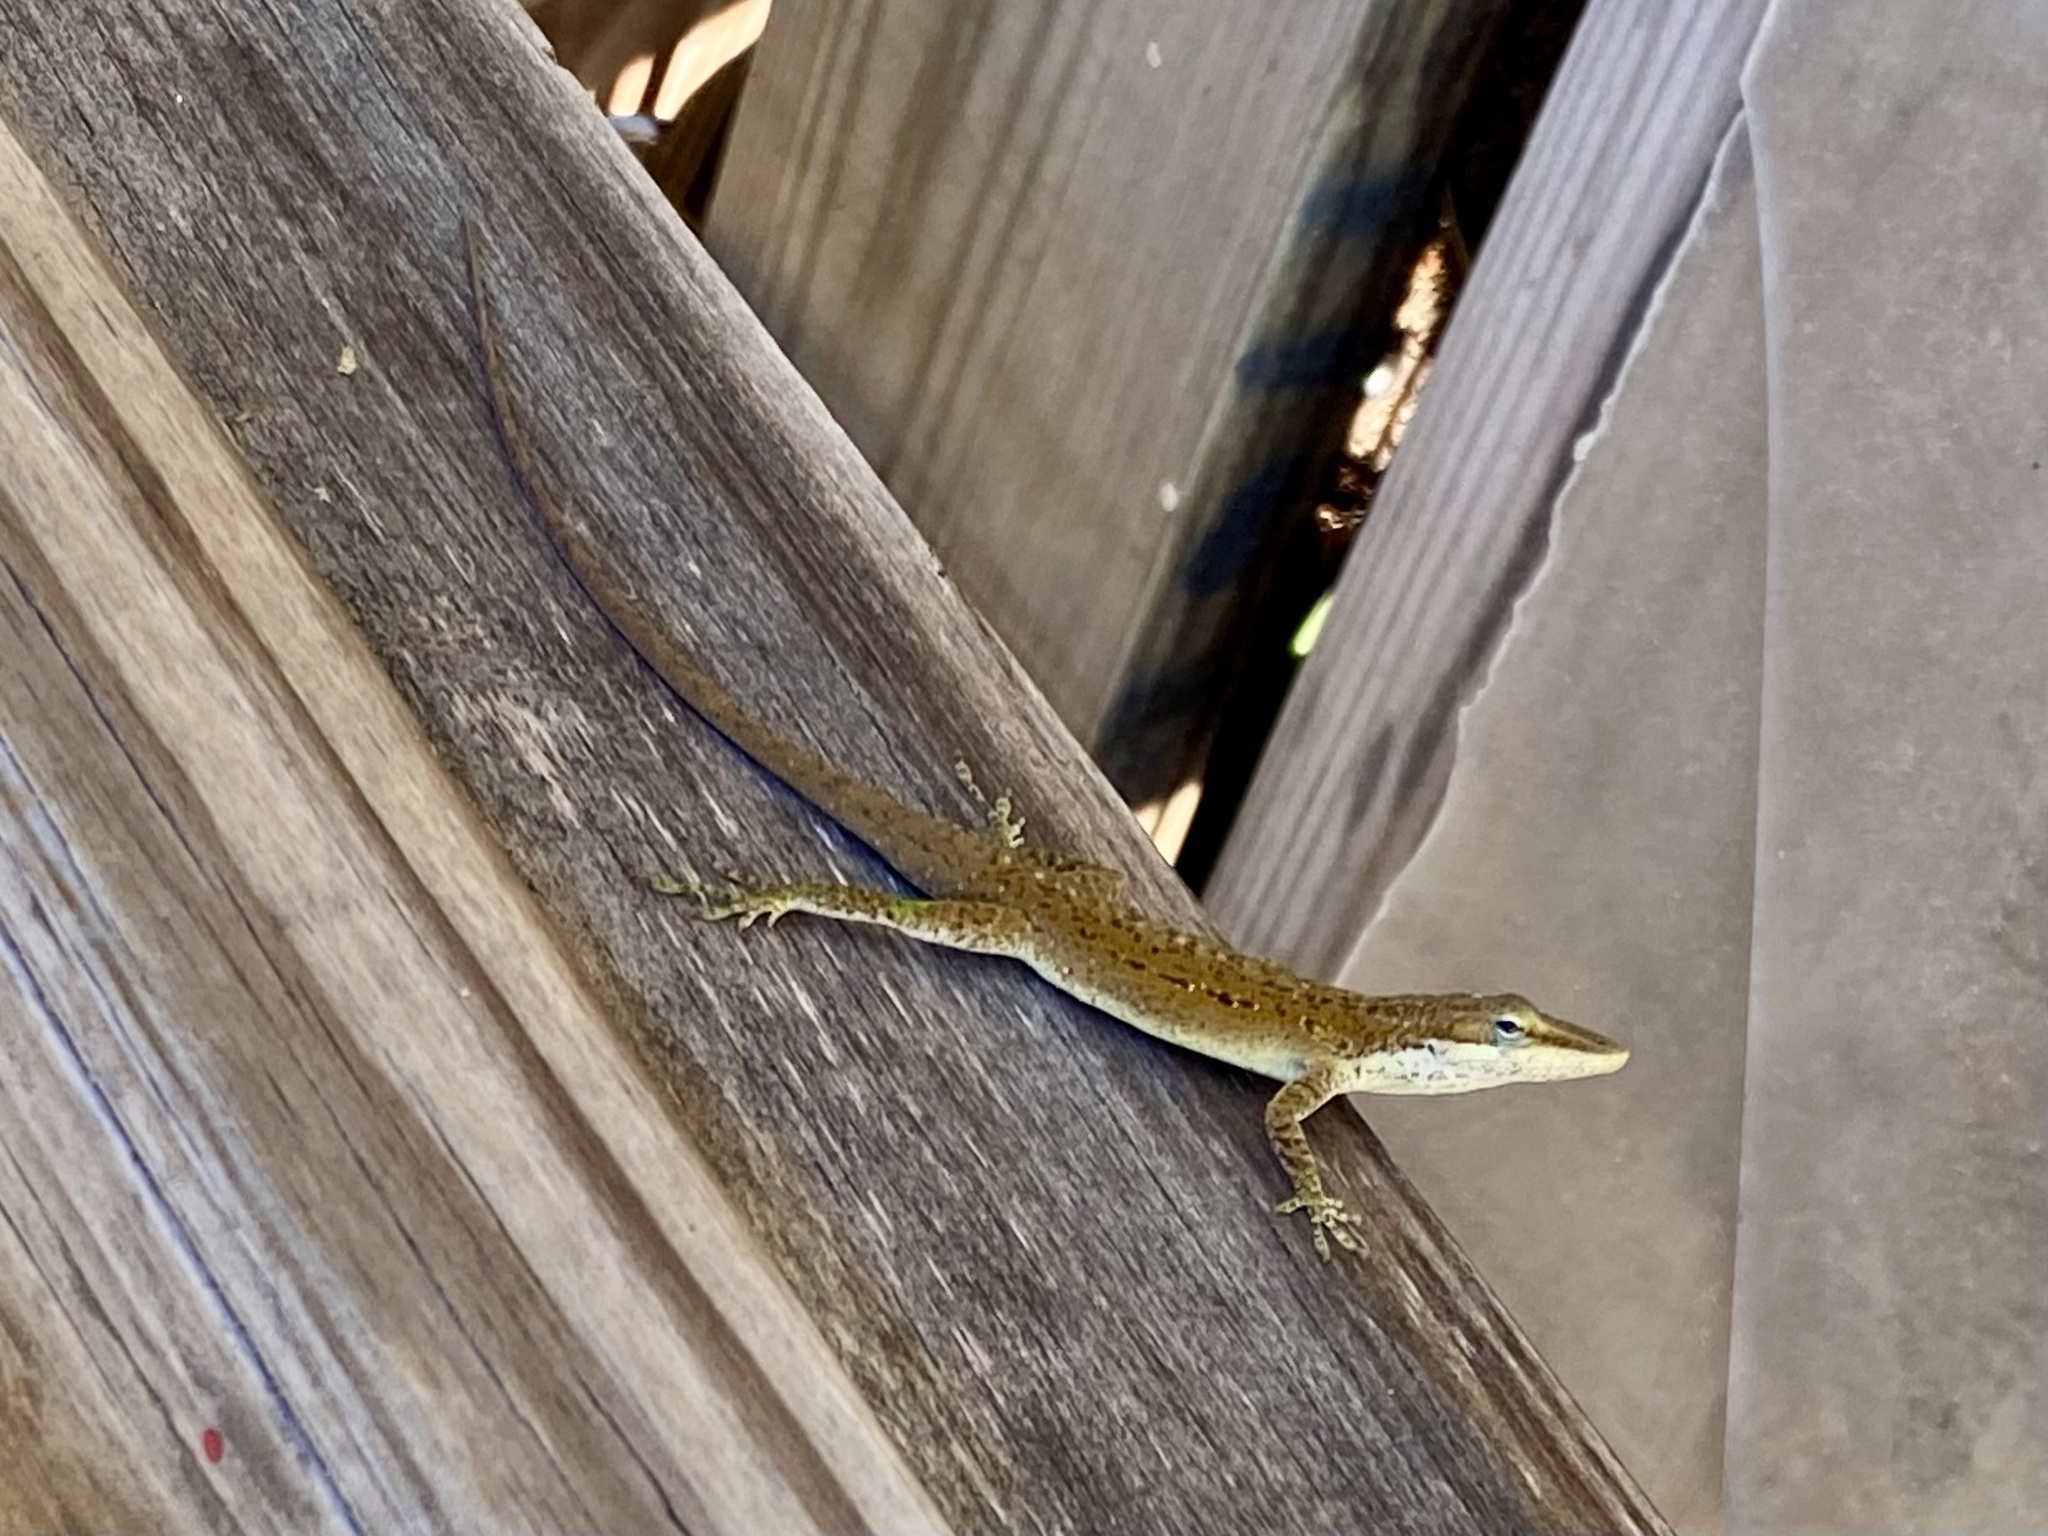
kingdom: Animalia
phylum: Chordata
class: Squamata
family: Dactyloidae
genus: Anolis
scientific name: Anolis carolinensis
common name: Green anole
